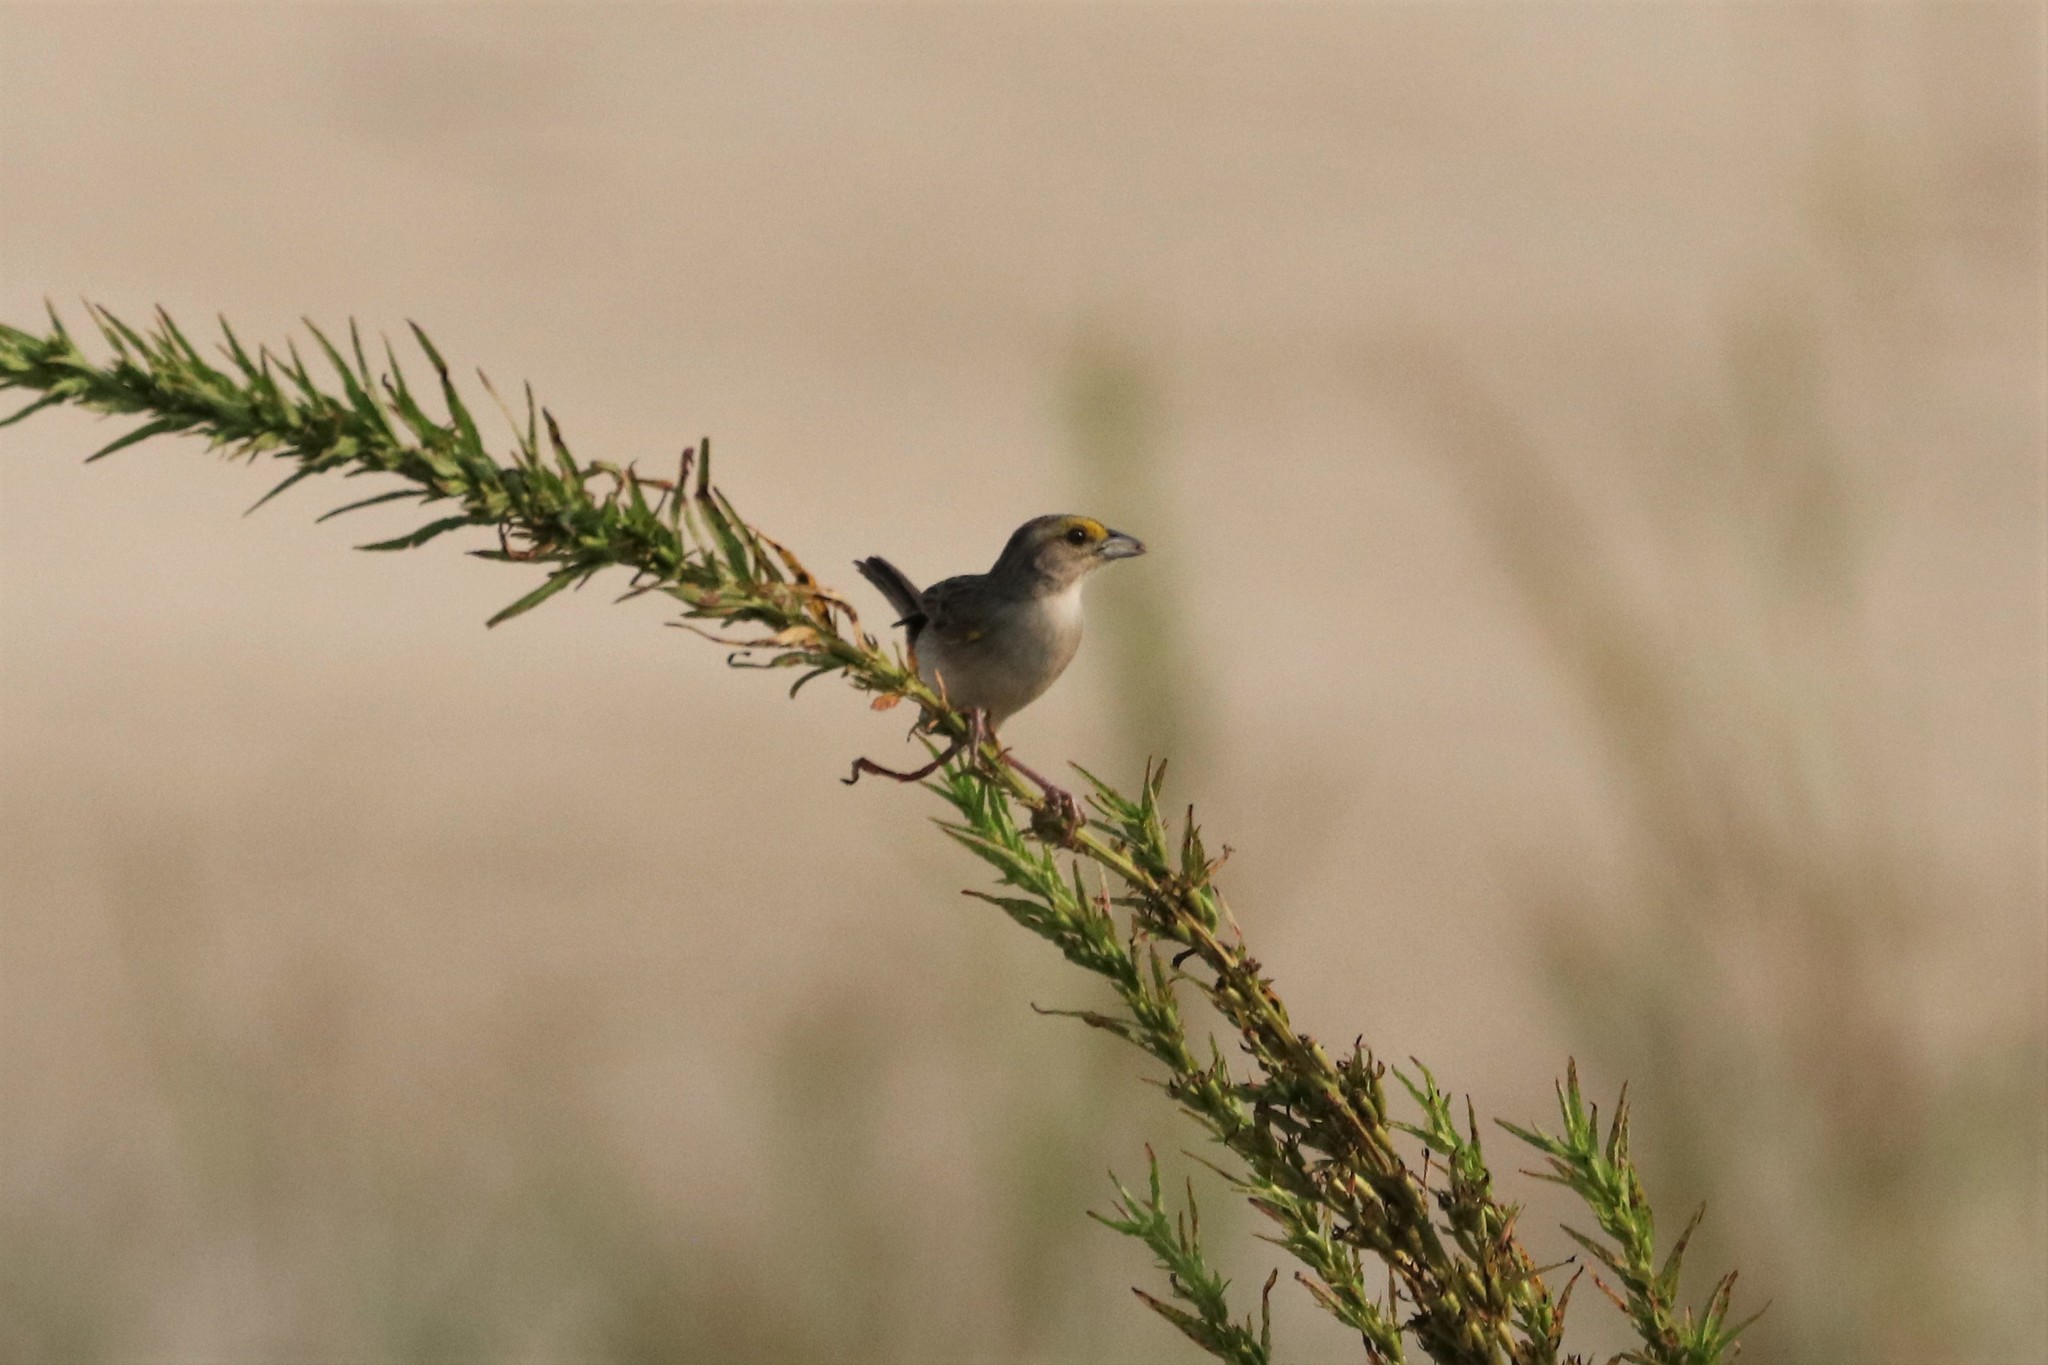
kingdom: Animalia
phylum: Chordata
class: Aves
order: Passeriformes
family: Passerellidae
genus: Ammodramus
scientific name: Ammodramus aurifrons
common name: Yellow-browed sparrow
